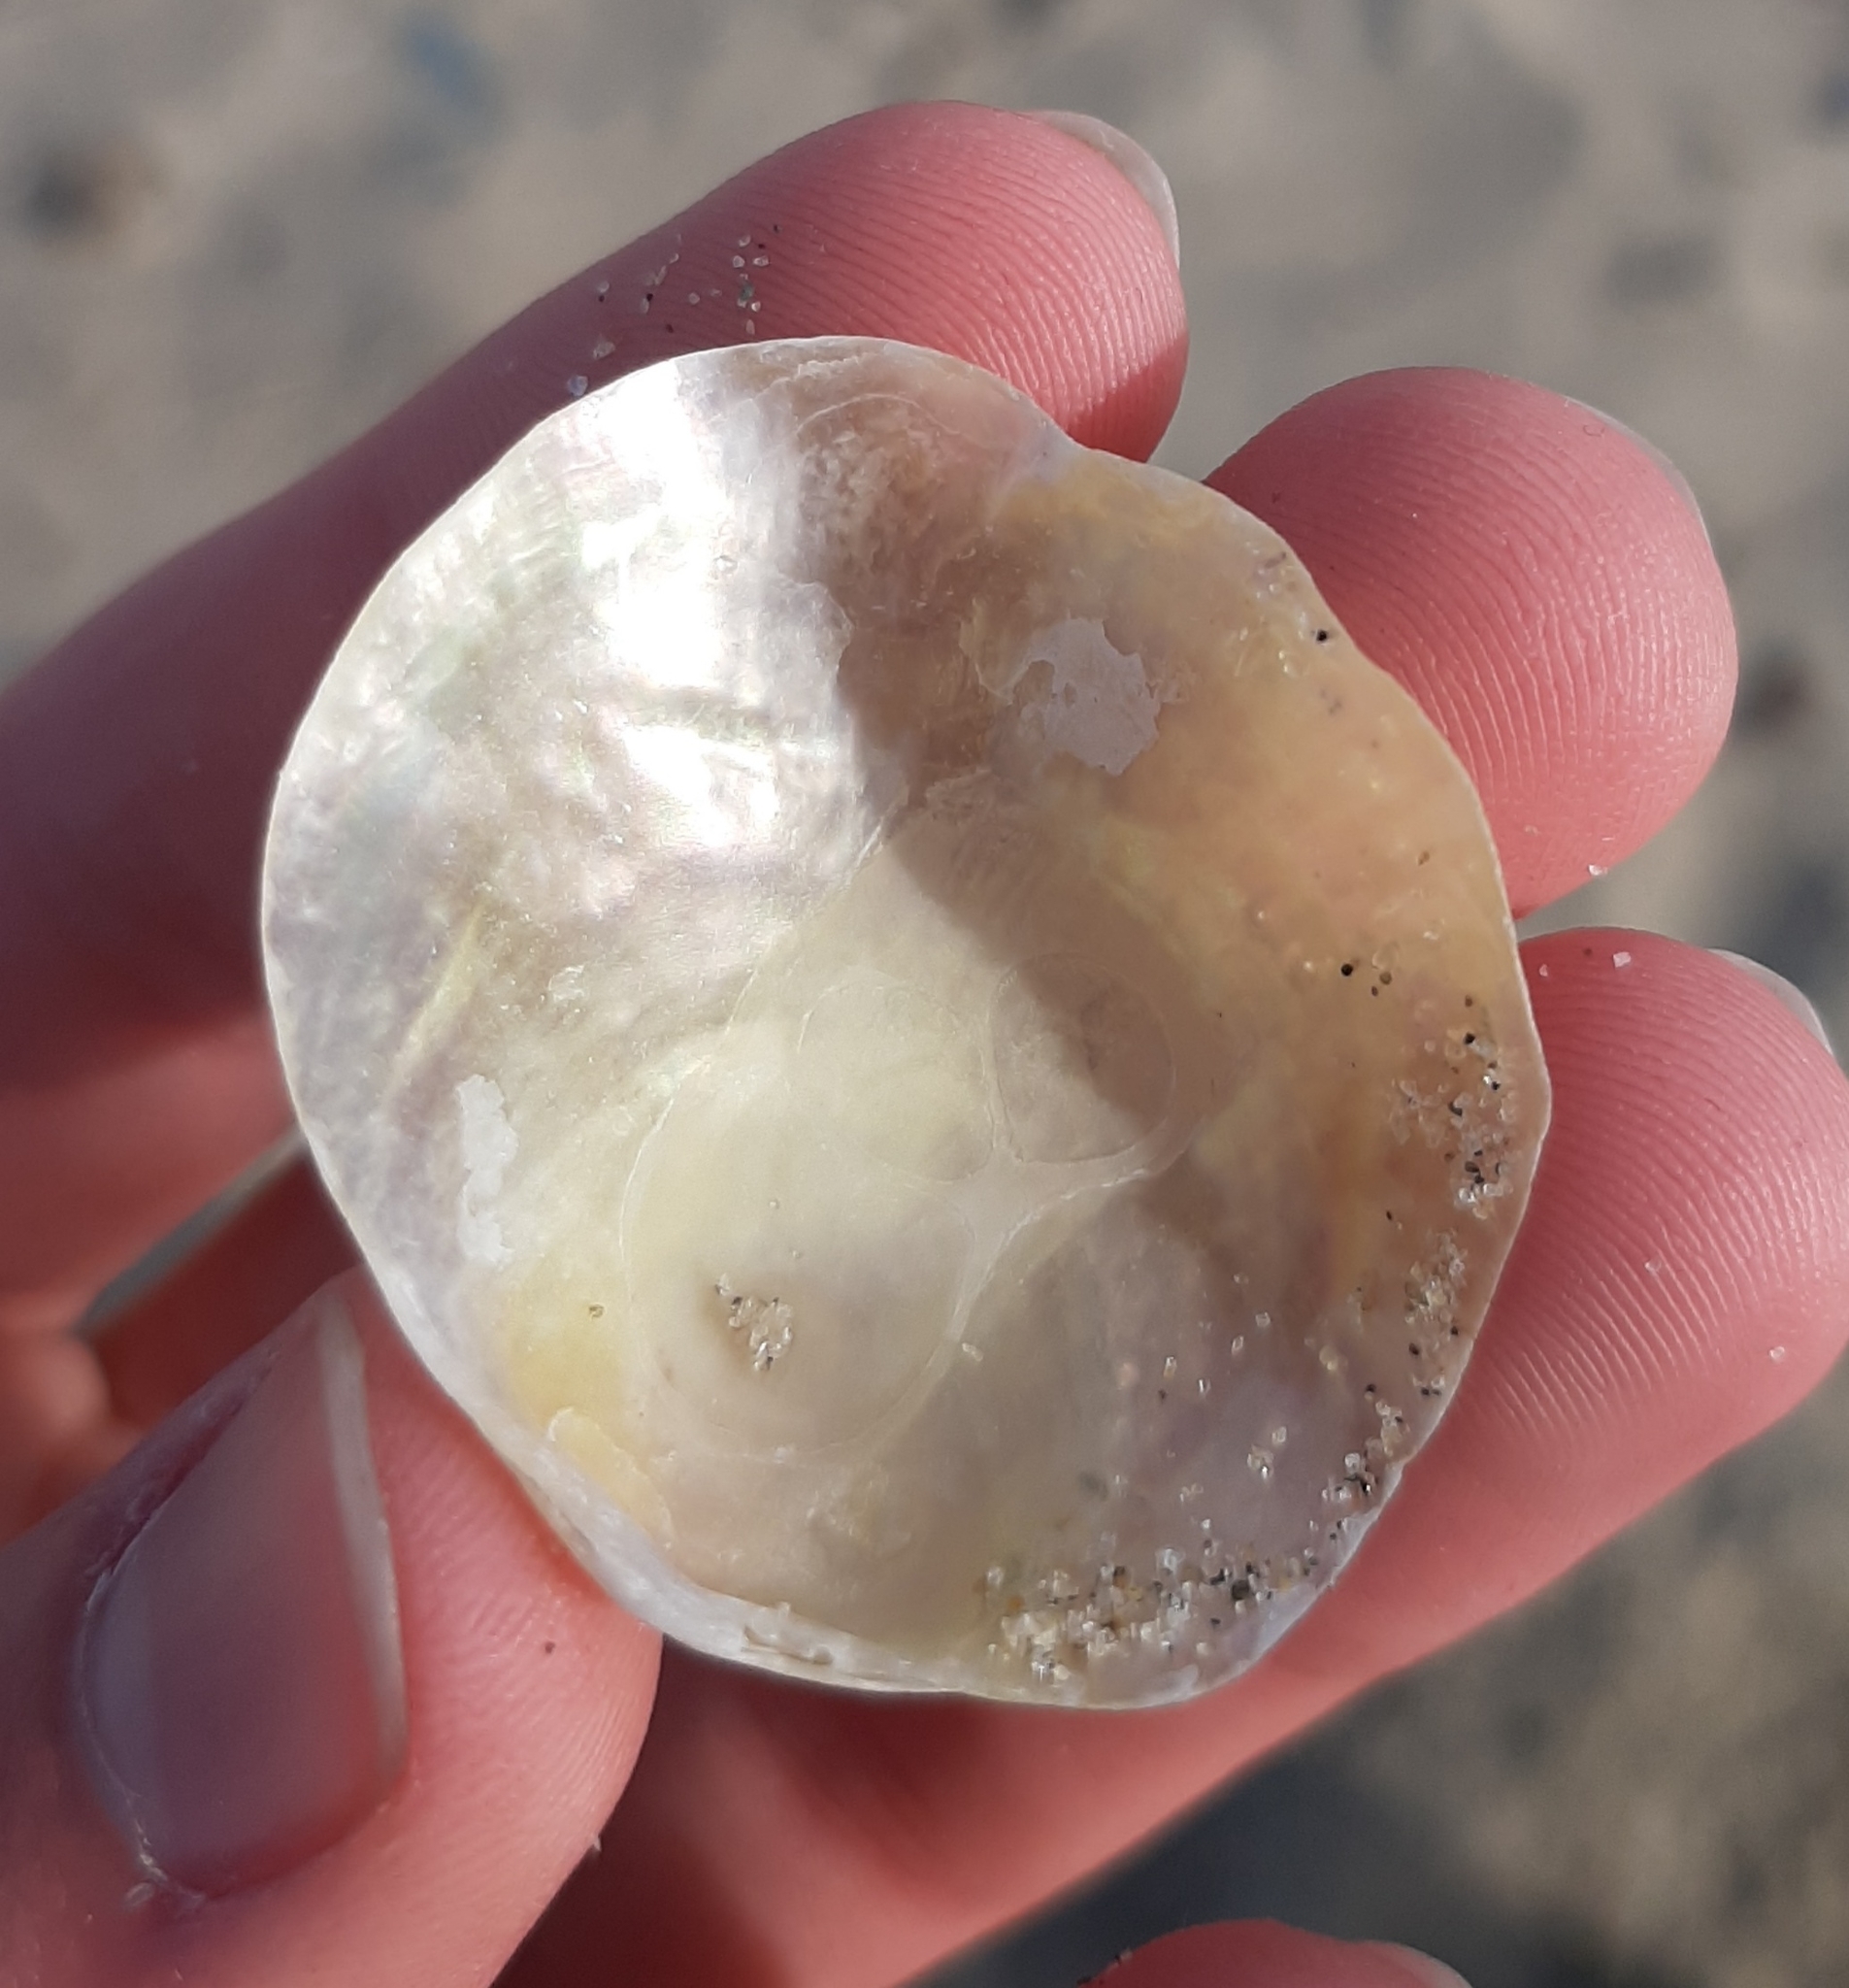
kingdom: Animalia
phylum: Mollusca
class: Bivalvia
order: Pectinida
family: Anomiidae
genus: Anomia
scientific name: Anomia simplex
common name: Common jingle shell
